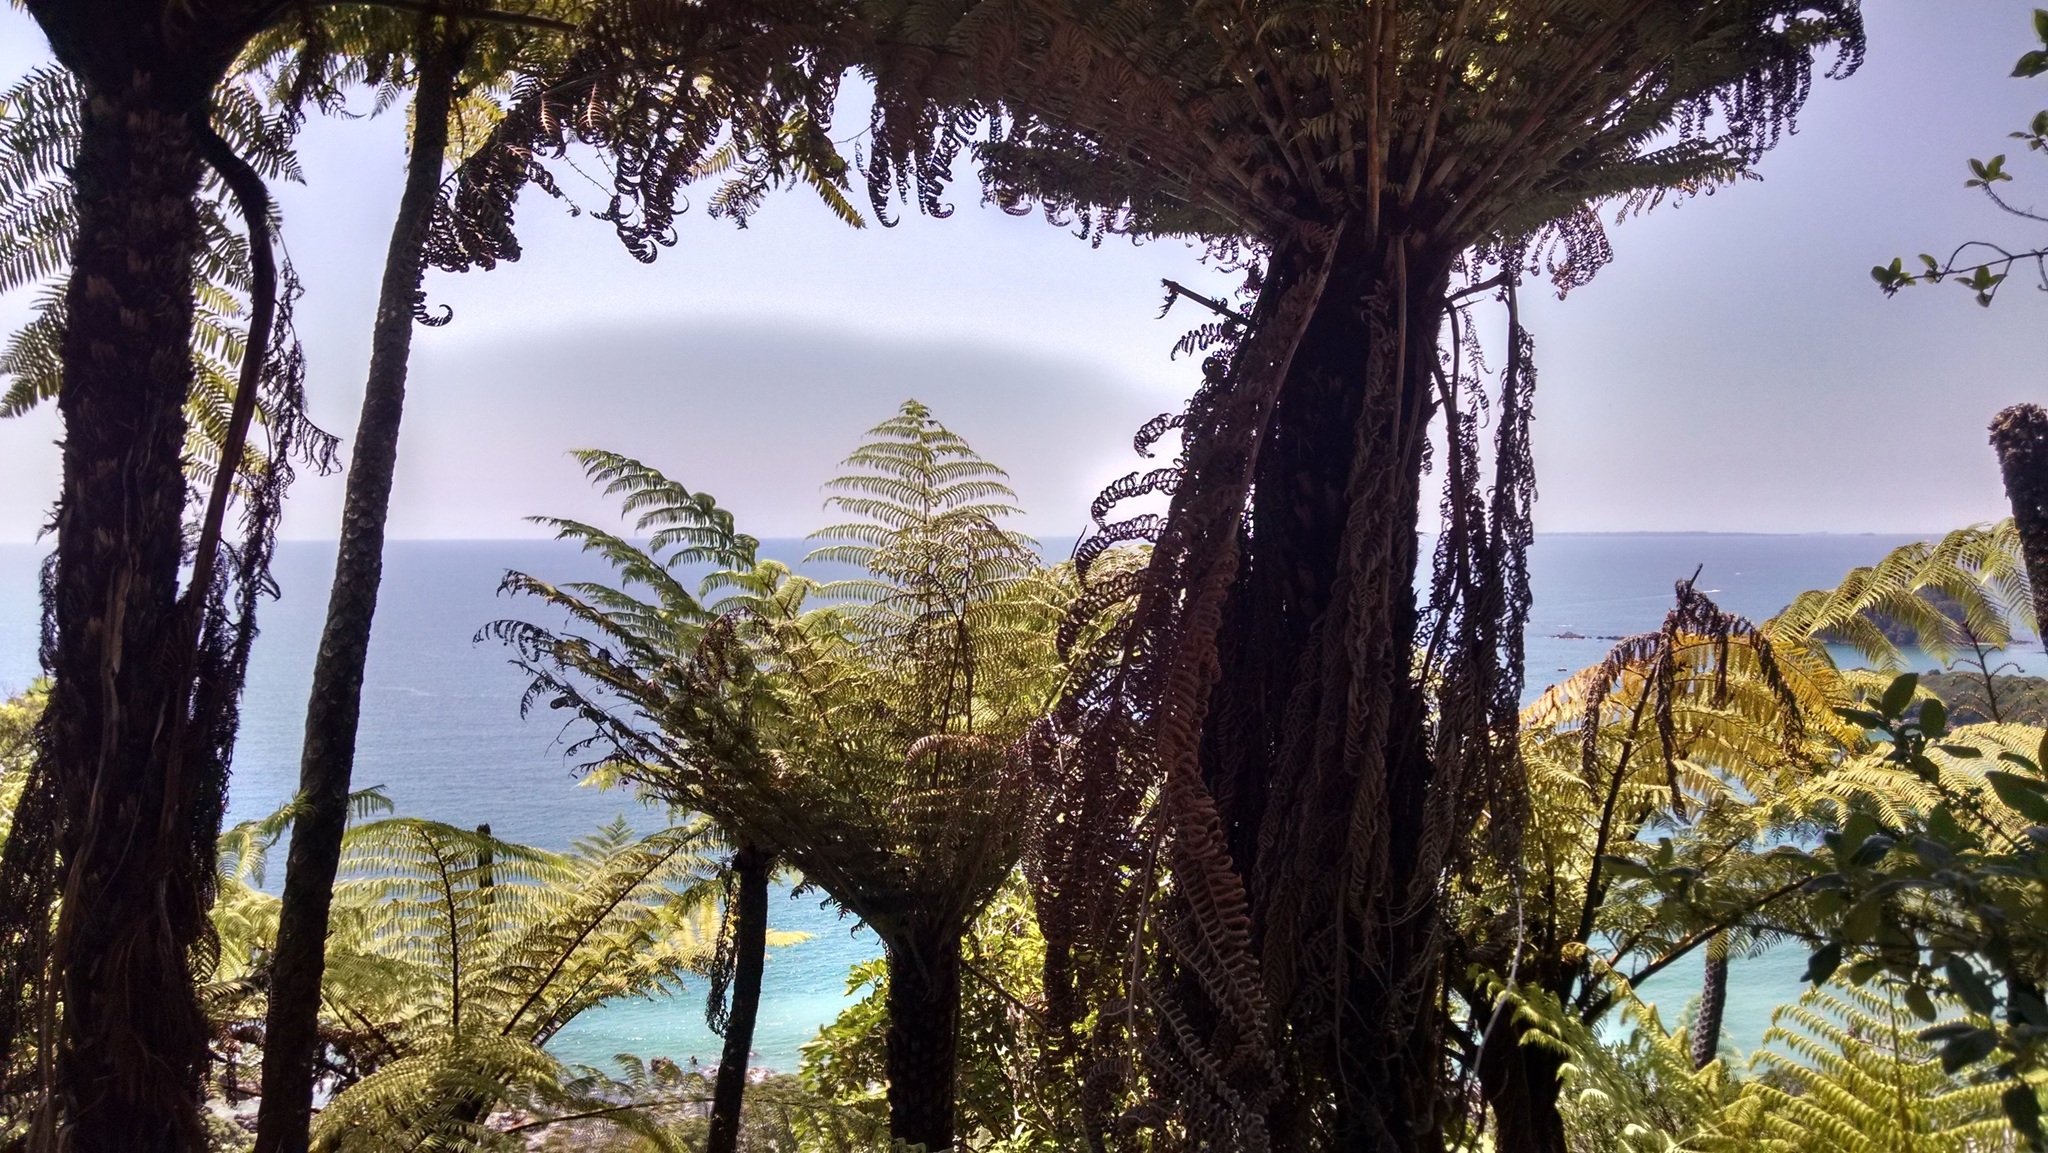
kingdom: Plantae
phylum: Tracheophyta
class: Polypodiopsida
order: Cyatheales
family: Cyatheaceae
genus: Sphaeropteris
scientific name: Sphaeropteris medullaris
